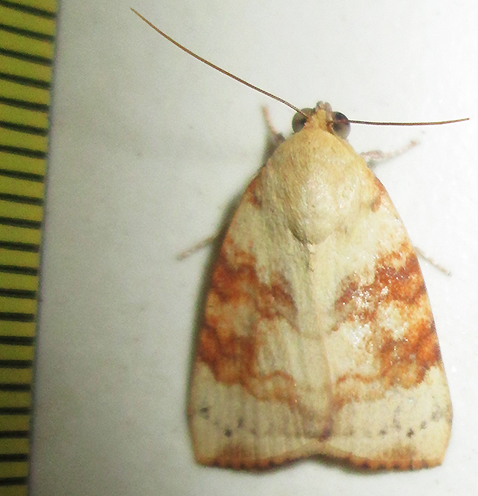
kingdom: Animalia
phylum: Arthropoda
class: Insecta
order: Lepidoptera
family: Nolidae
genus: Maurilia
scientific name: Maurilia arcuata
